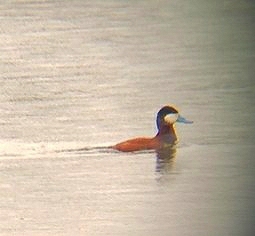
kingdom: Animalia
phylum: Chordata
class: Aves
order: Anseriformes
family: Anatidae
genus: Oxyura
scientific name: Oxyura jamaicensis
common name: Ruddy duck
